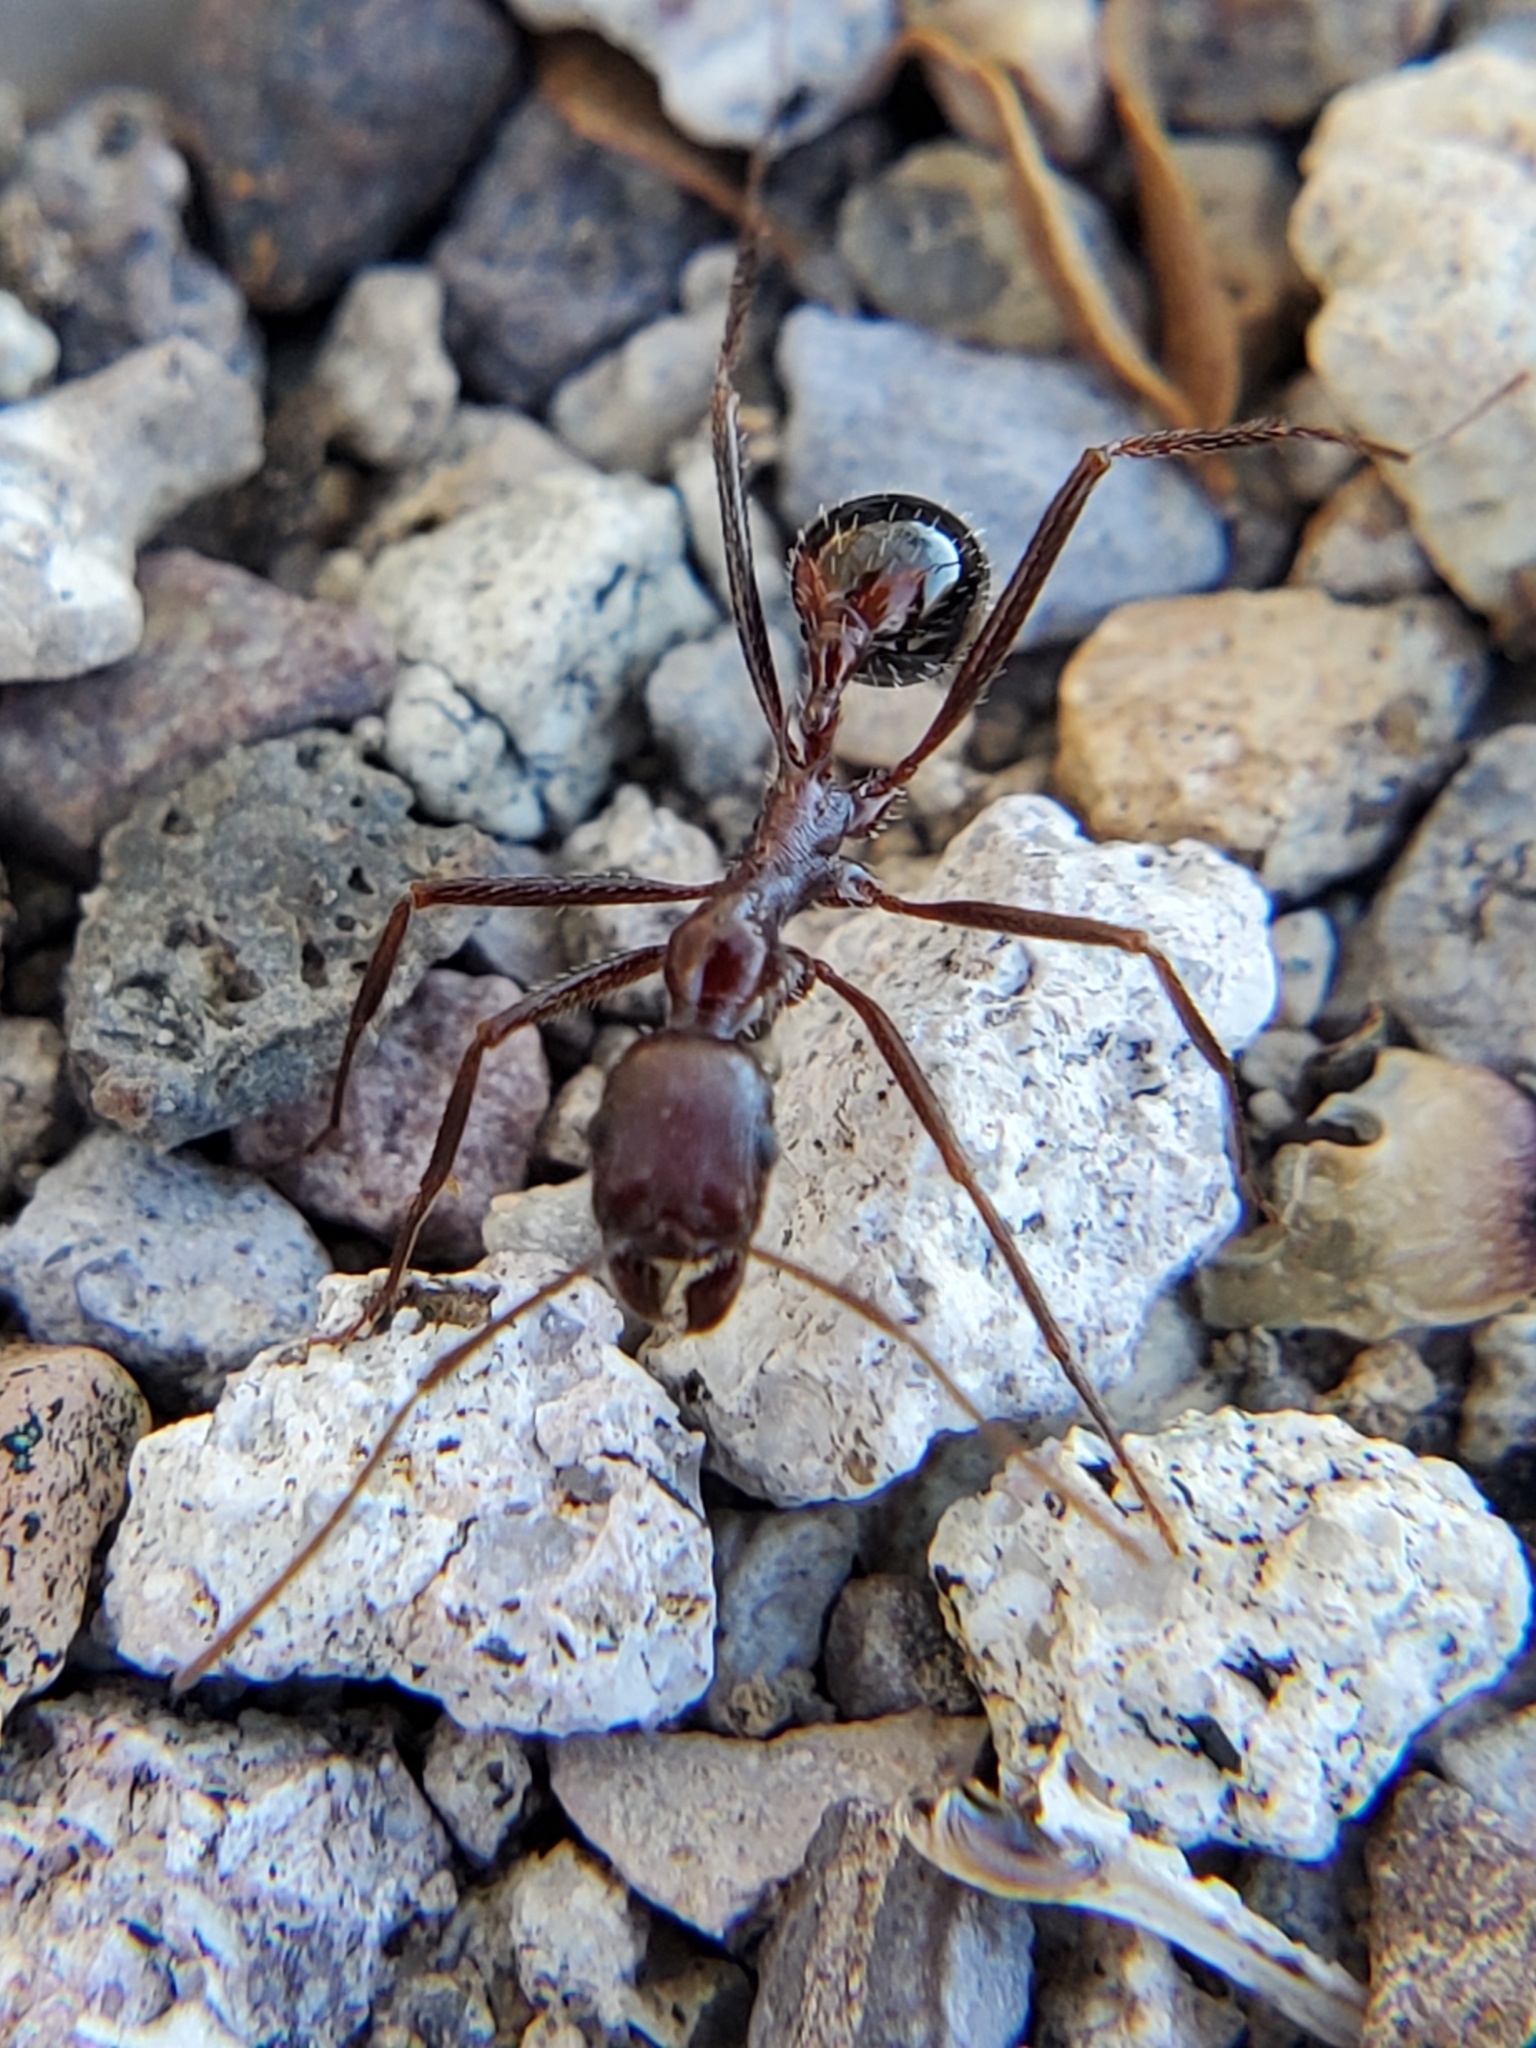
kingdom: Animalia
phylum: Arthropoda
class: Insecta
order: Hymenoptera
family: Formicidae
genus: Novomessor
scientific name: Novomessor cockerelli
